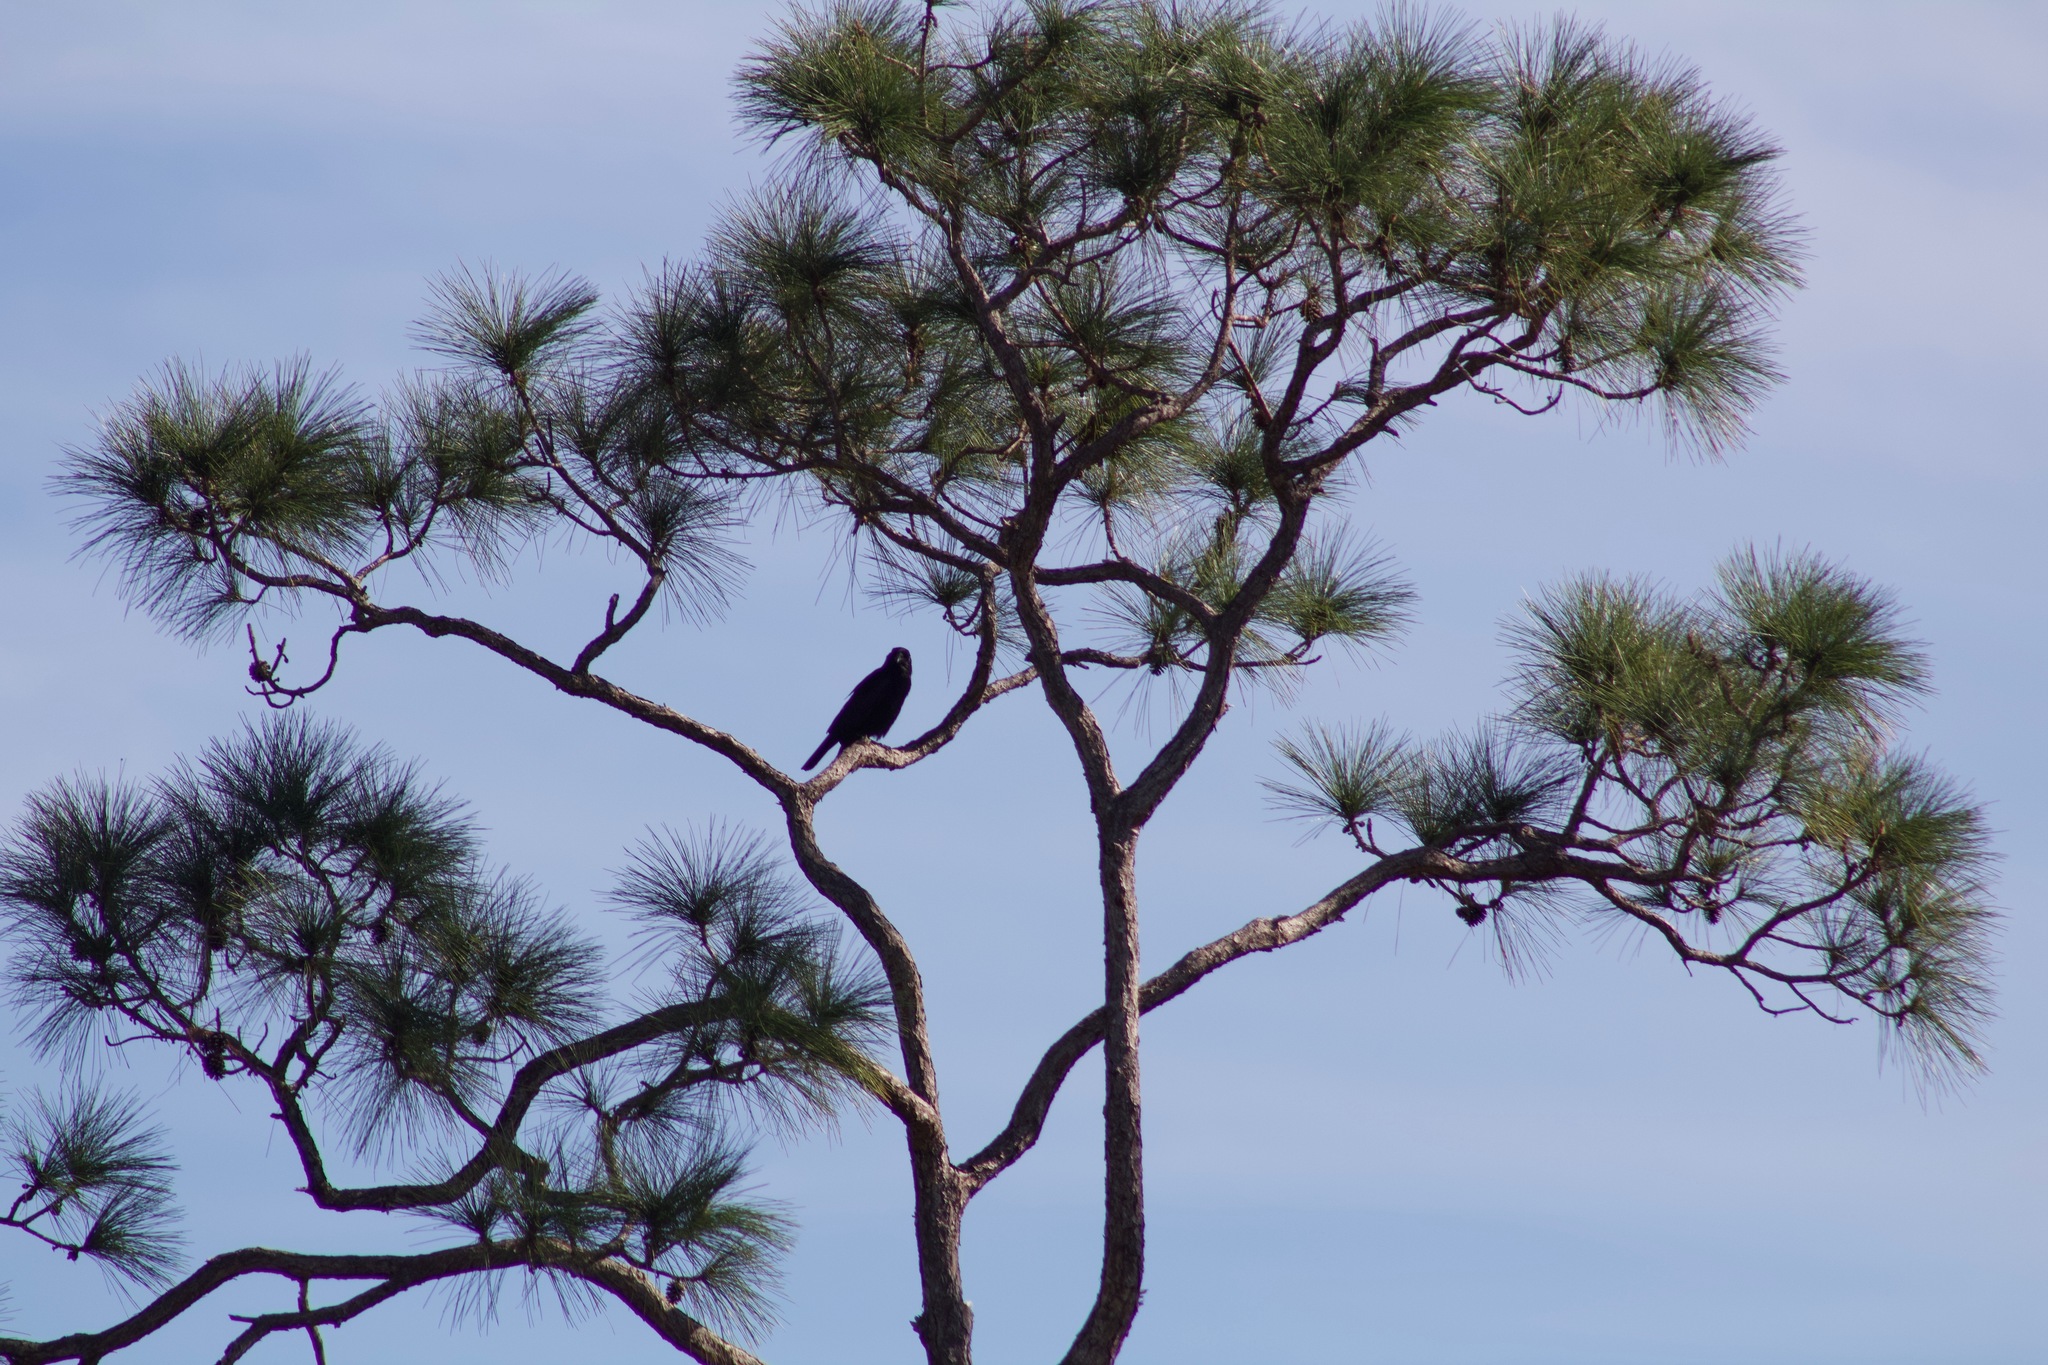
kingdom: Animalia
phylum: Chordata
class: Aves
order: Passeriformes
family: Corvidae
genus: Corvus
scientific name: Corvus brachyrhynchos
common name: American crow
